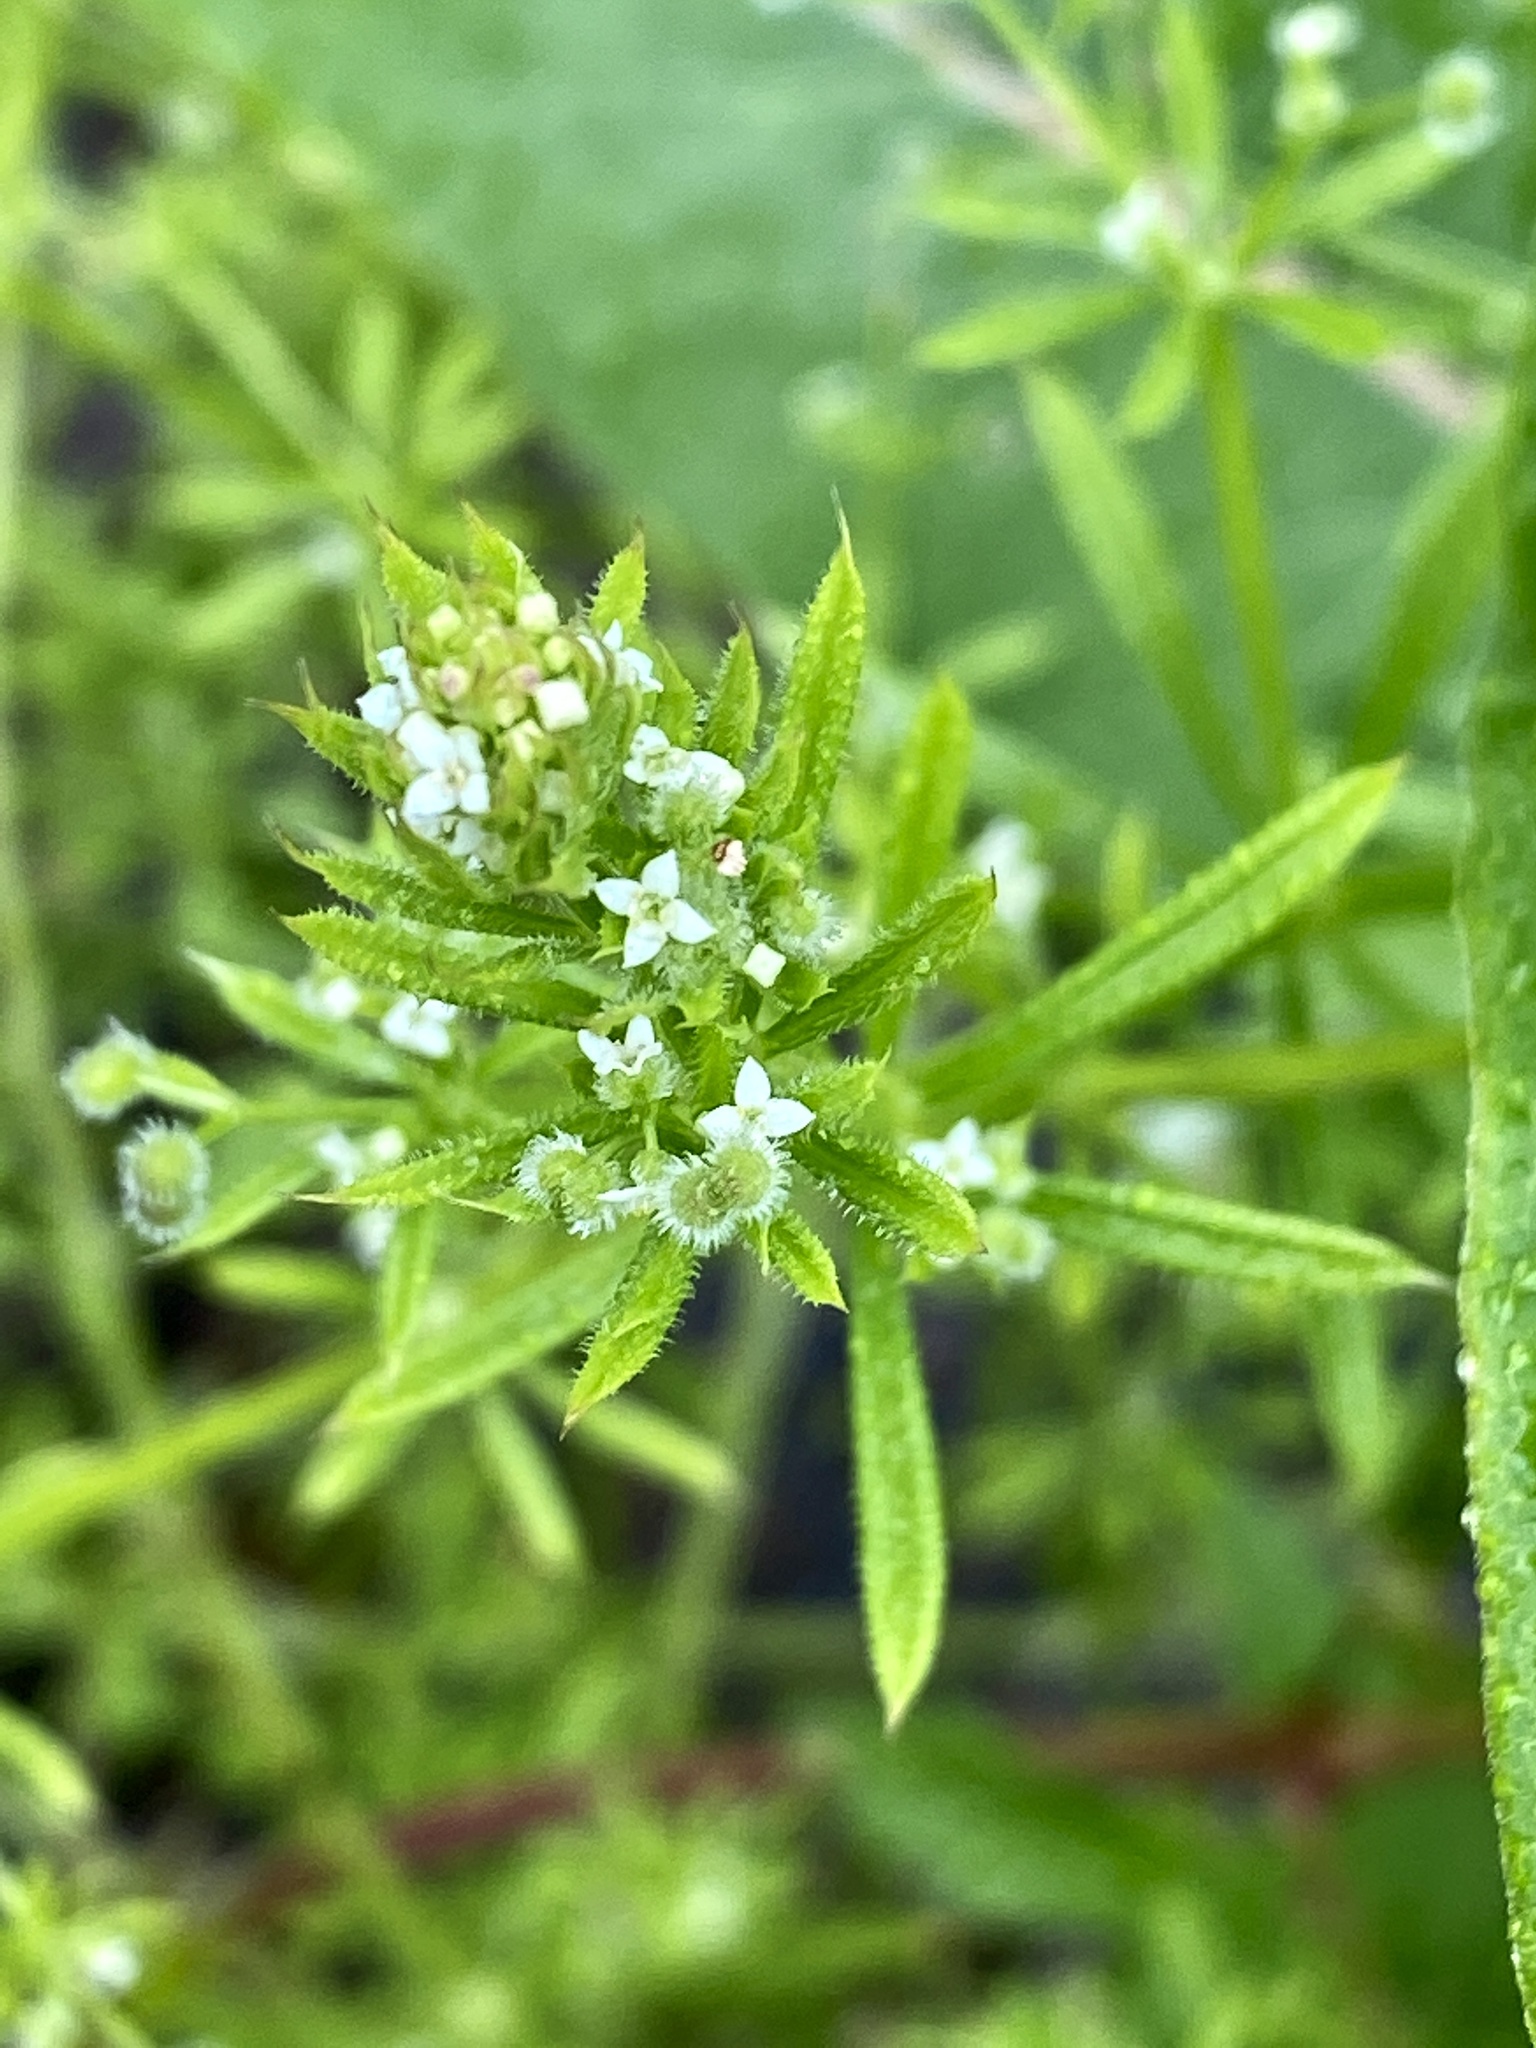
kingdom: Plantae
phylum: Tracheophyta
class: Magnoliopsida
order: Gentianales
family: Rubiaceae
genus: Galium
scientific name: Galium aparine
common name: Cleavers
